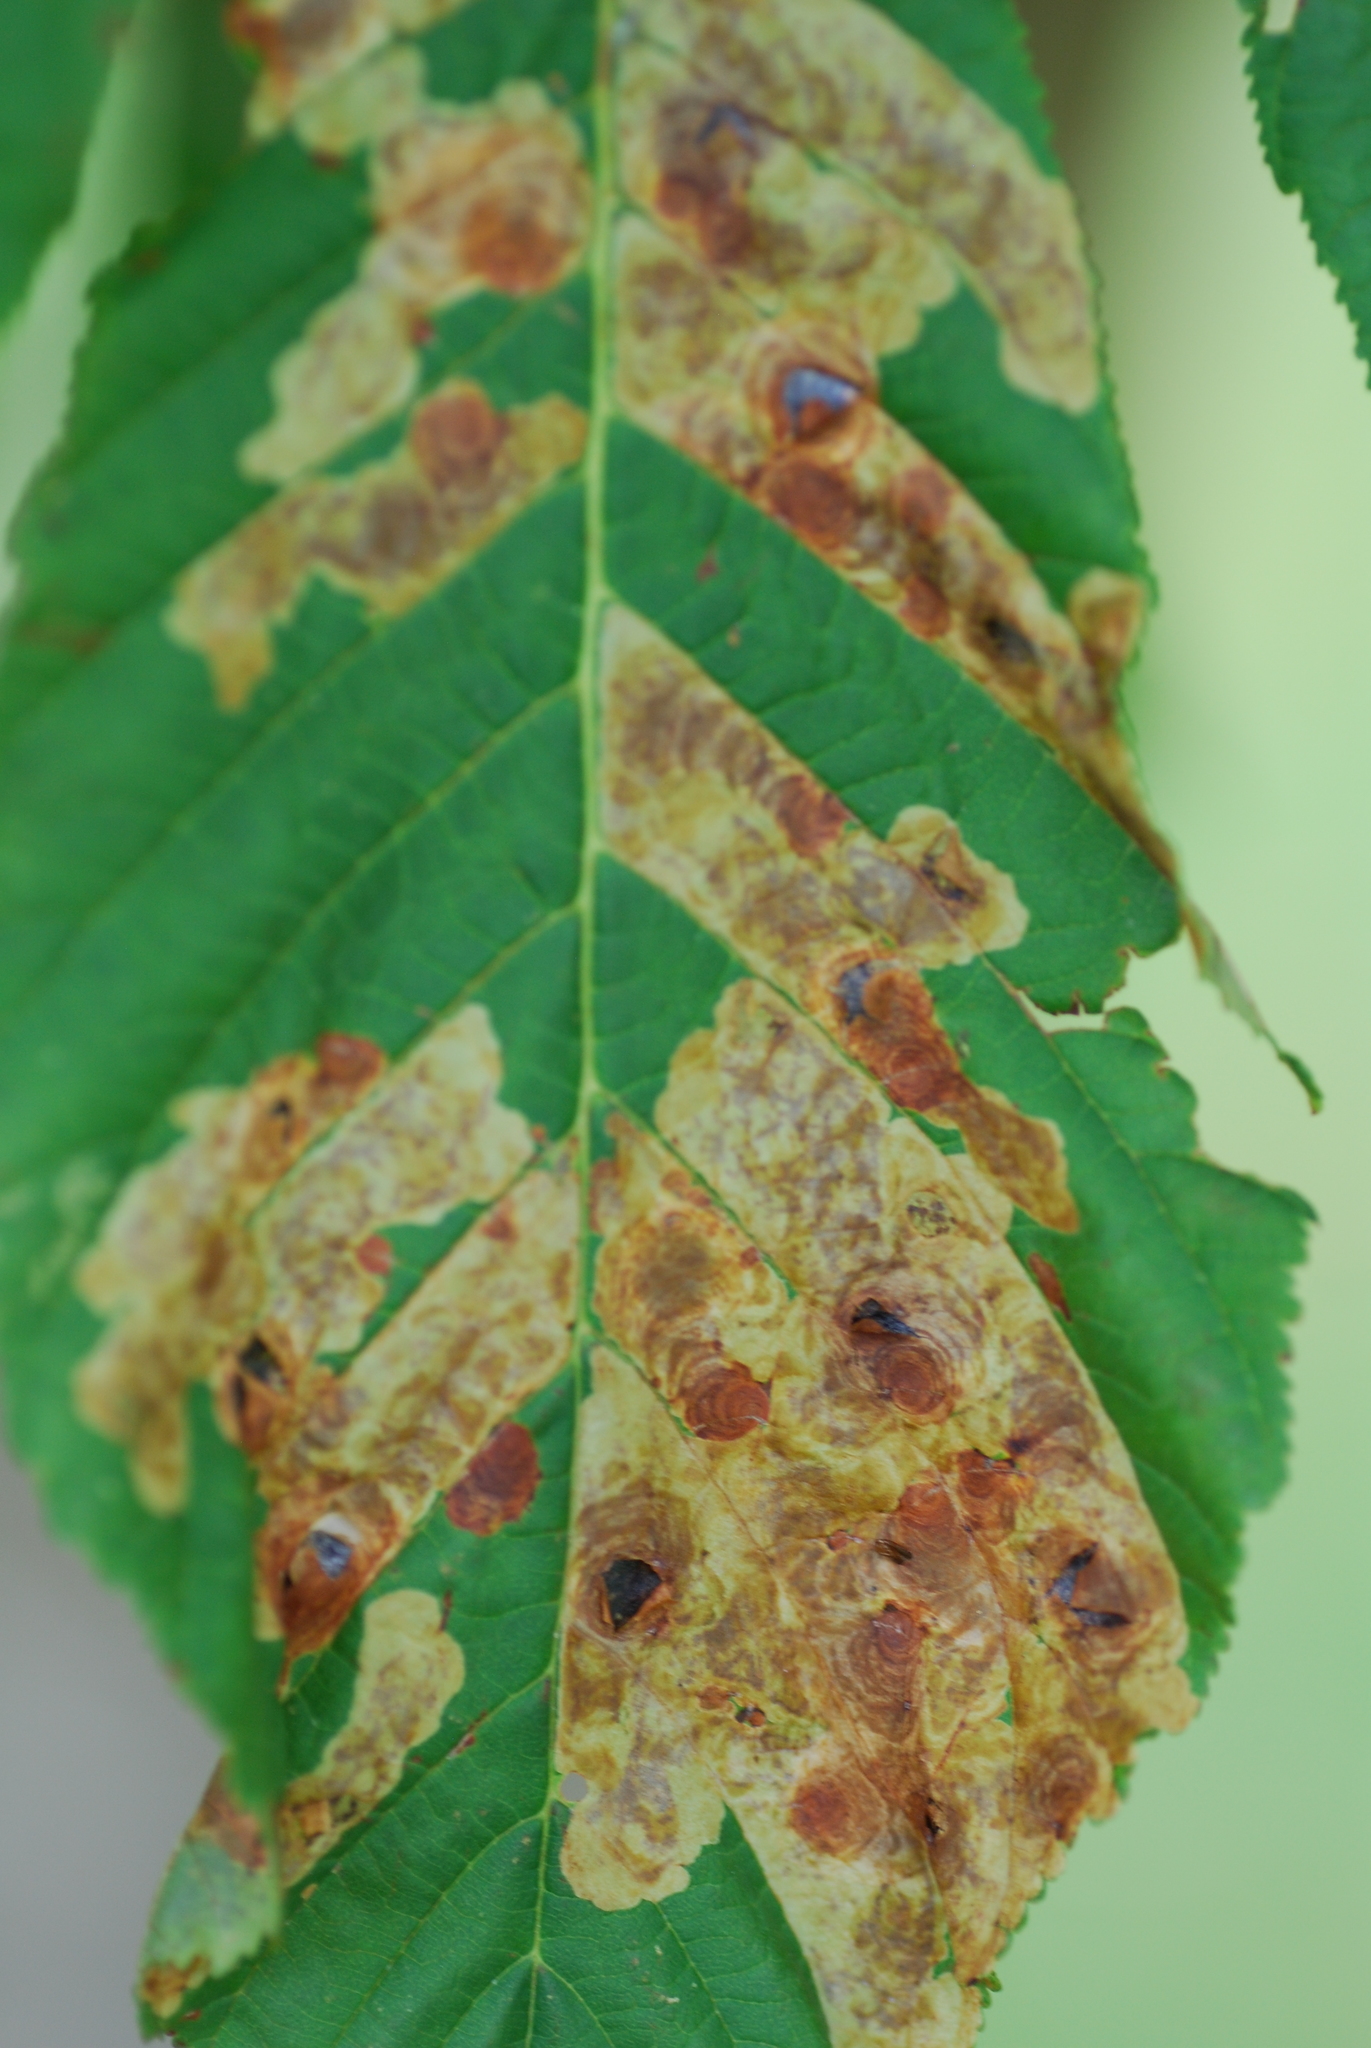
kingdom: Animalia
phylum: Arthropoda
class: Insecta
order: Lepidoptera
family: Gracillariidae
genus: Cameraria
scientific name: Cameraria ohridella
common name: Horse-chestnut leaf-miner
